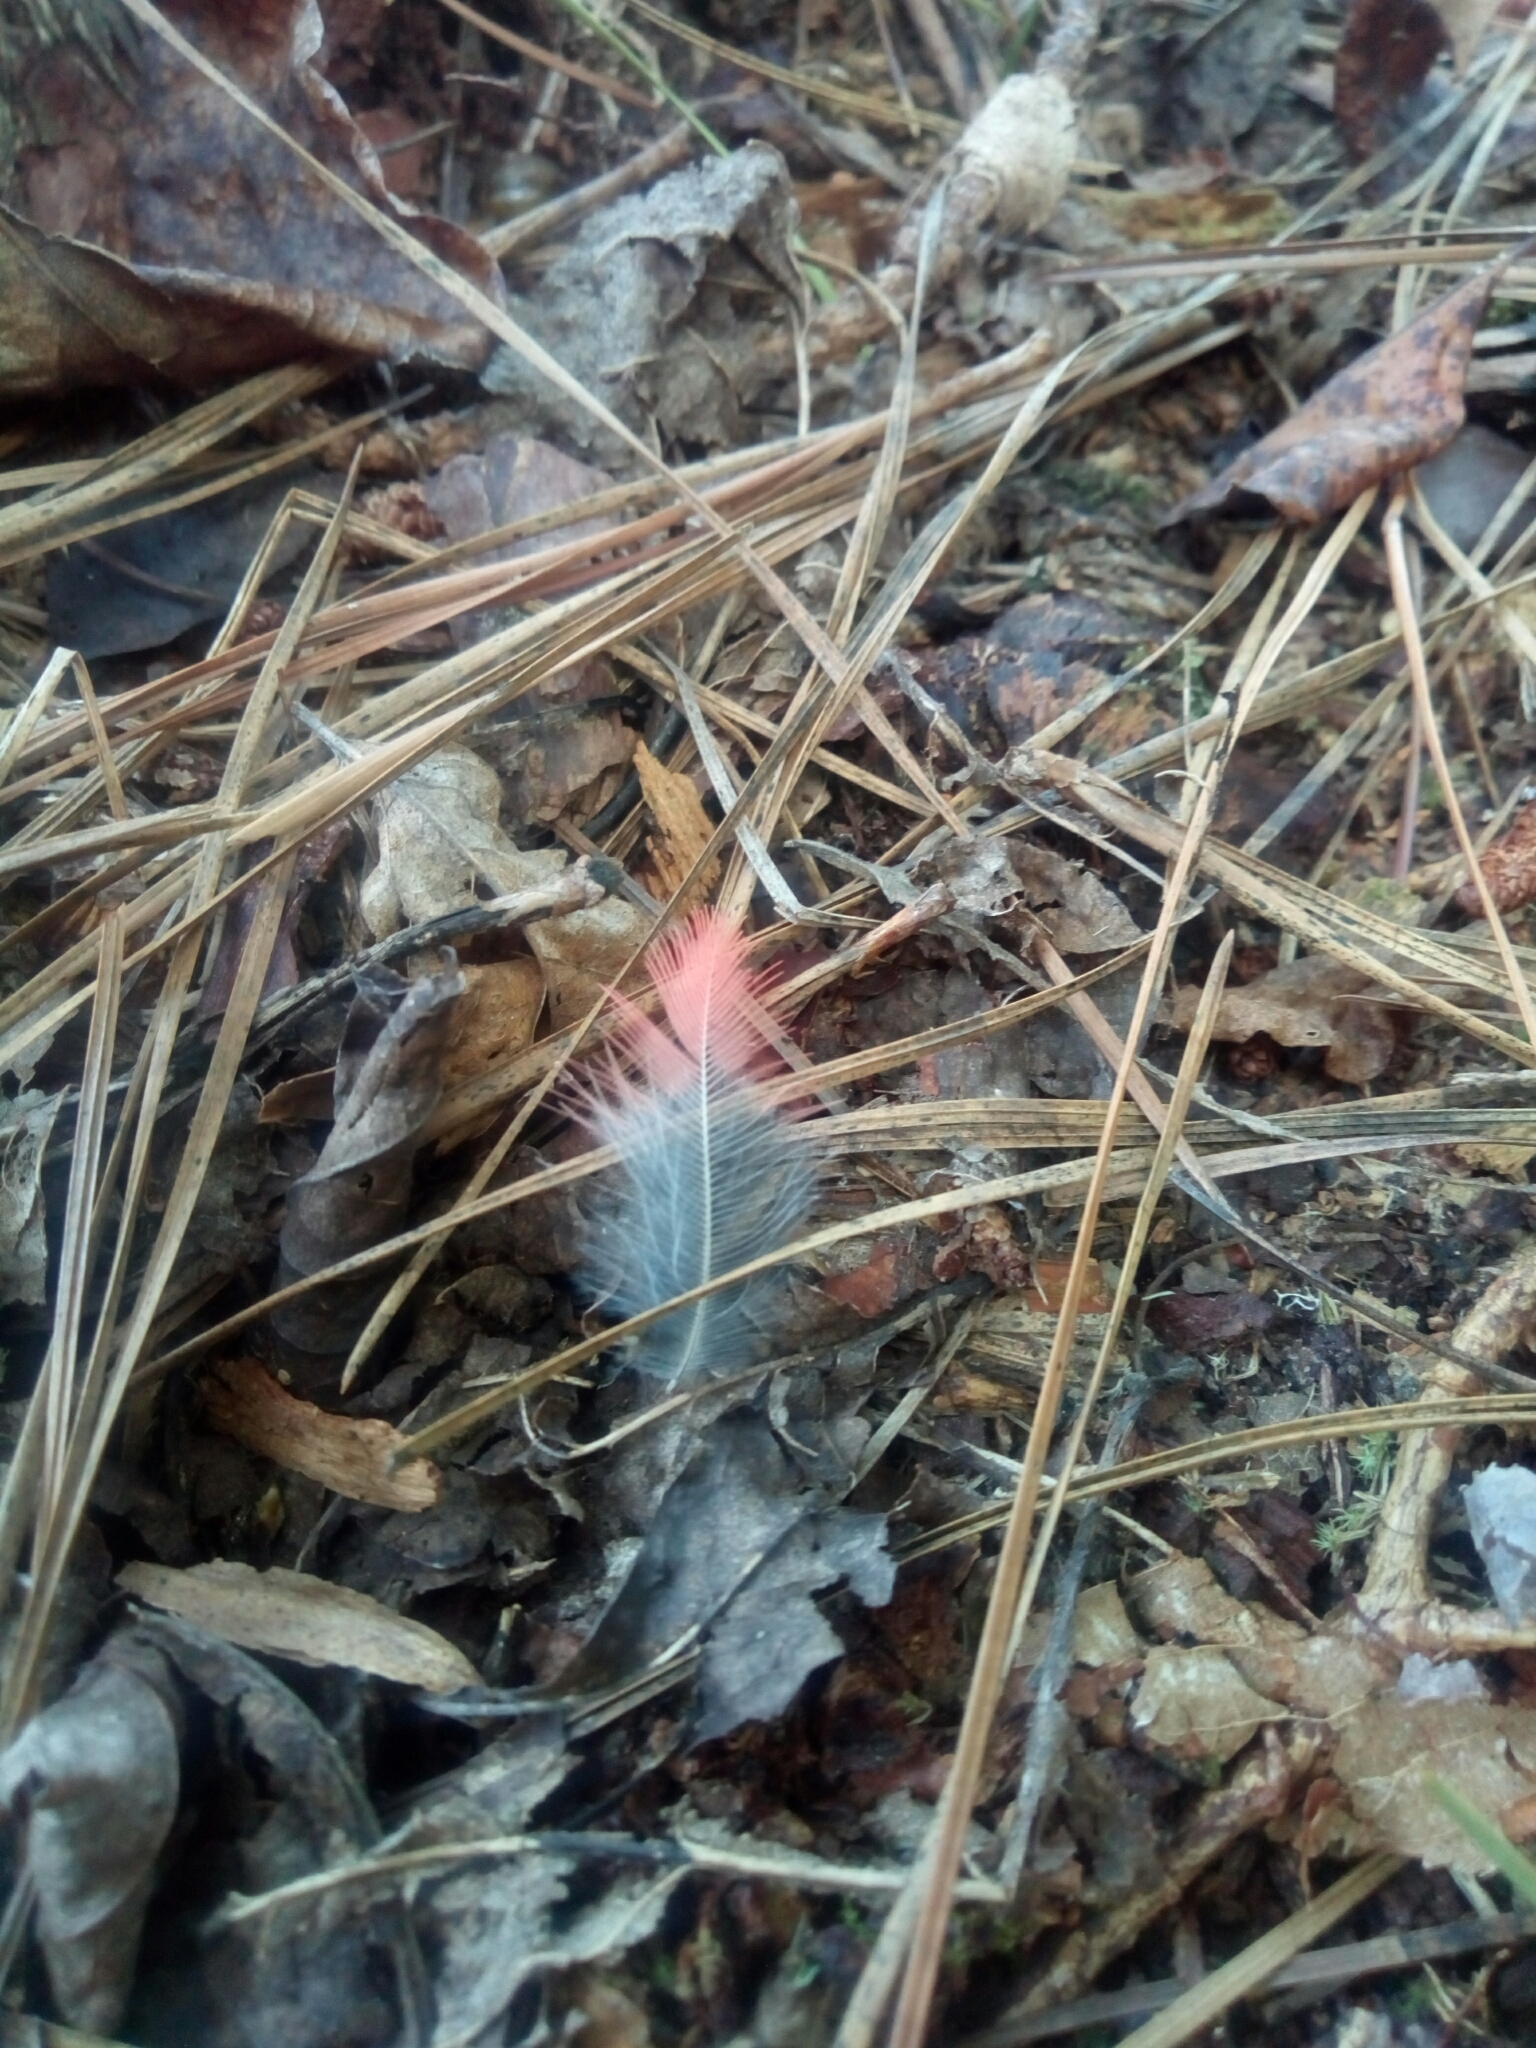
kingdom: Animalia
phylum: Chordata
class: Aves
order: Passeriformes
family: Cardinalidae
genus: Cardinalis
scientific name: Cardinalis cardinalis
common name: Northern cardinal
